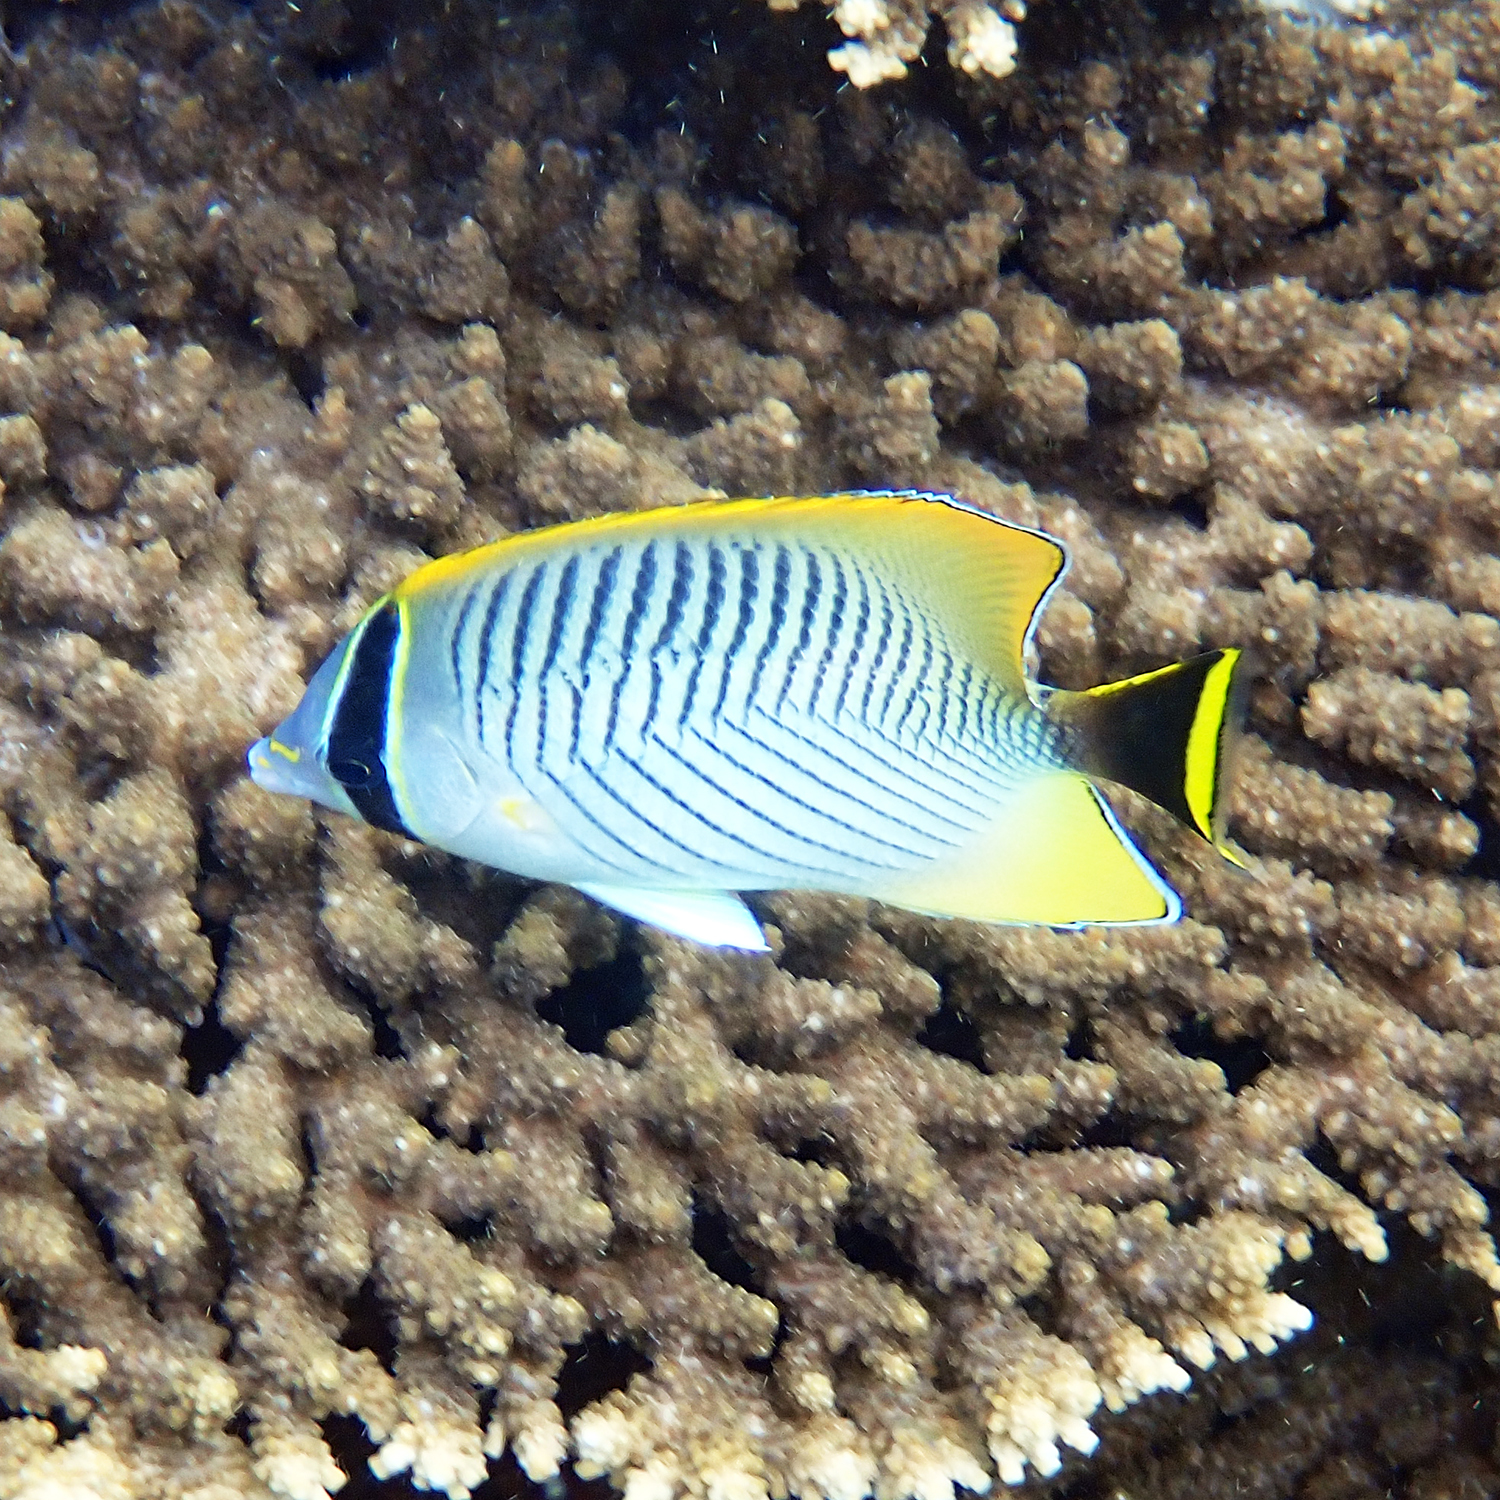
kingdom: Animalia
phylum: Chordata
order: Perciformes
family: Chaetodontidae
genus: Chaetodon
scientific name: Chaetodon trifascialis
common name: Chevroned butterflyfish
